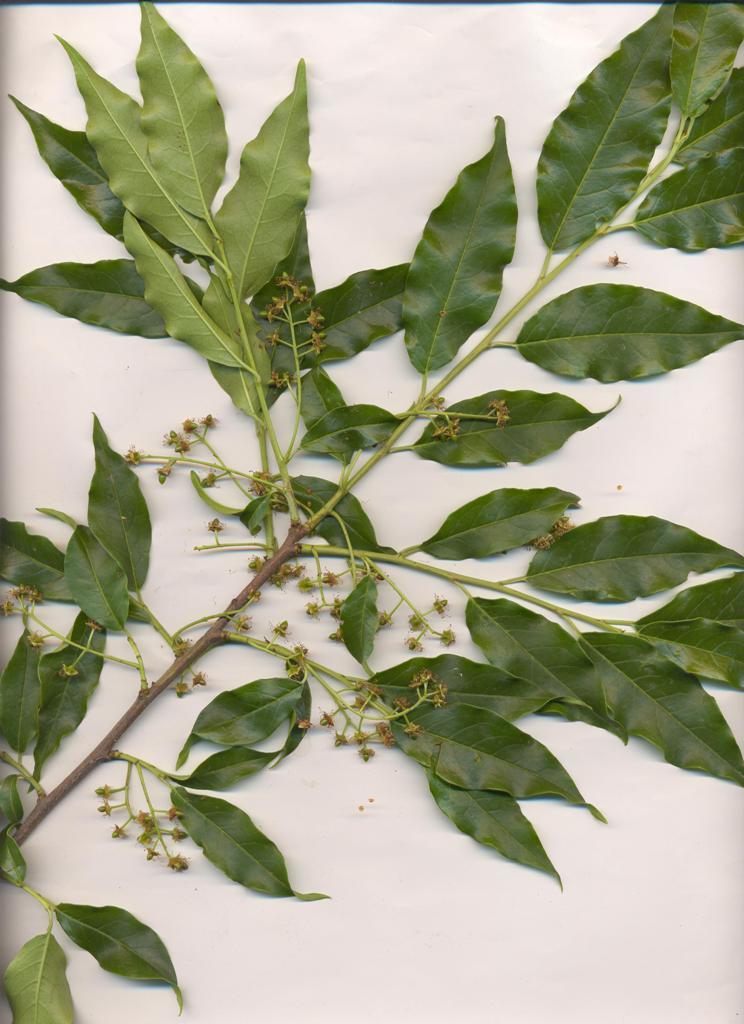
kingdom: Plantae
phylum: Tracheophyta
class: Magnoliopsida
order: Rosales
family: Rosaceae
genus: Prunus
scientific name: Prunus rhamnoides
